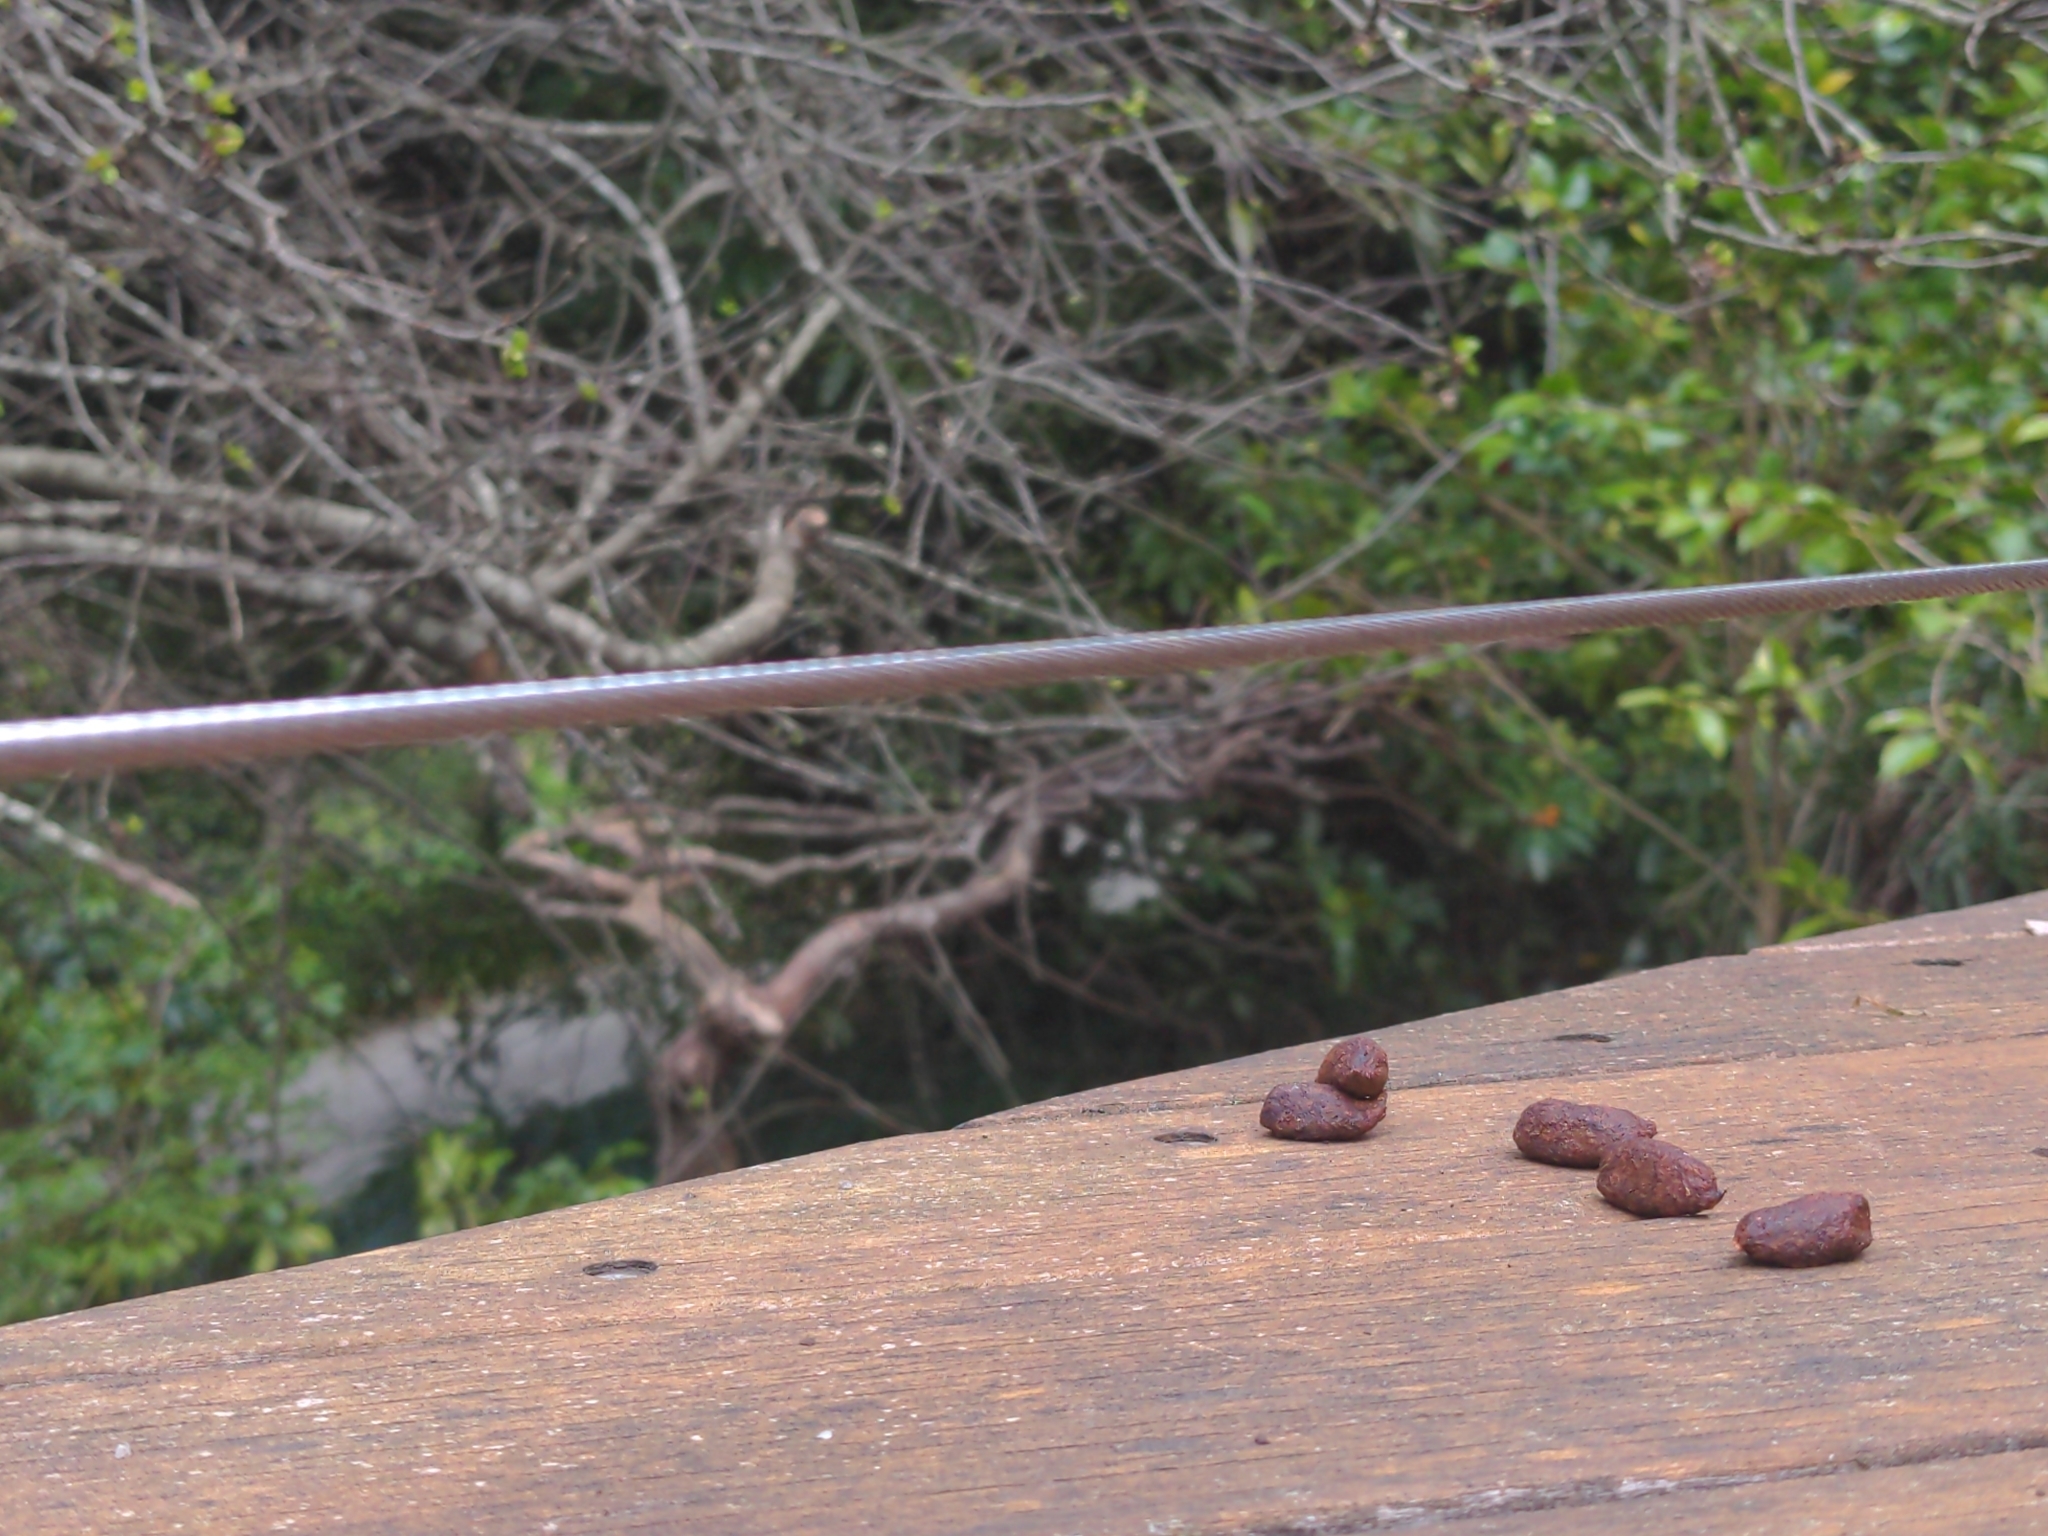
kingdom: Animalia
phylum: Chordata
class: Mammalia
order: Diprotodontia
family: Phalangeridae
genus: Trichosurus
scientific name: Trichosurus vulpecula
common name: Common brushtail
